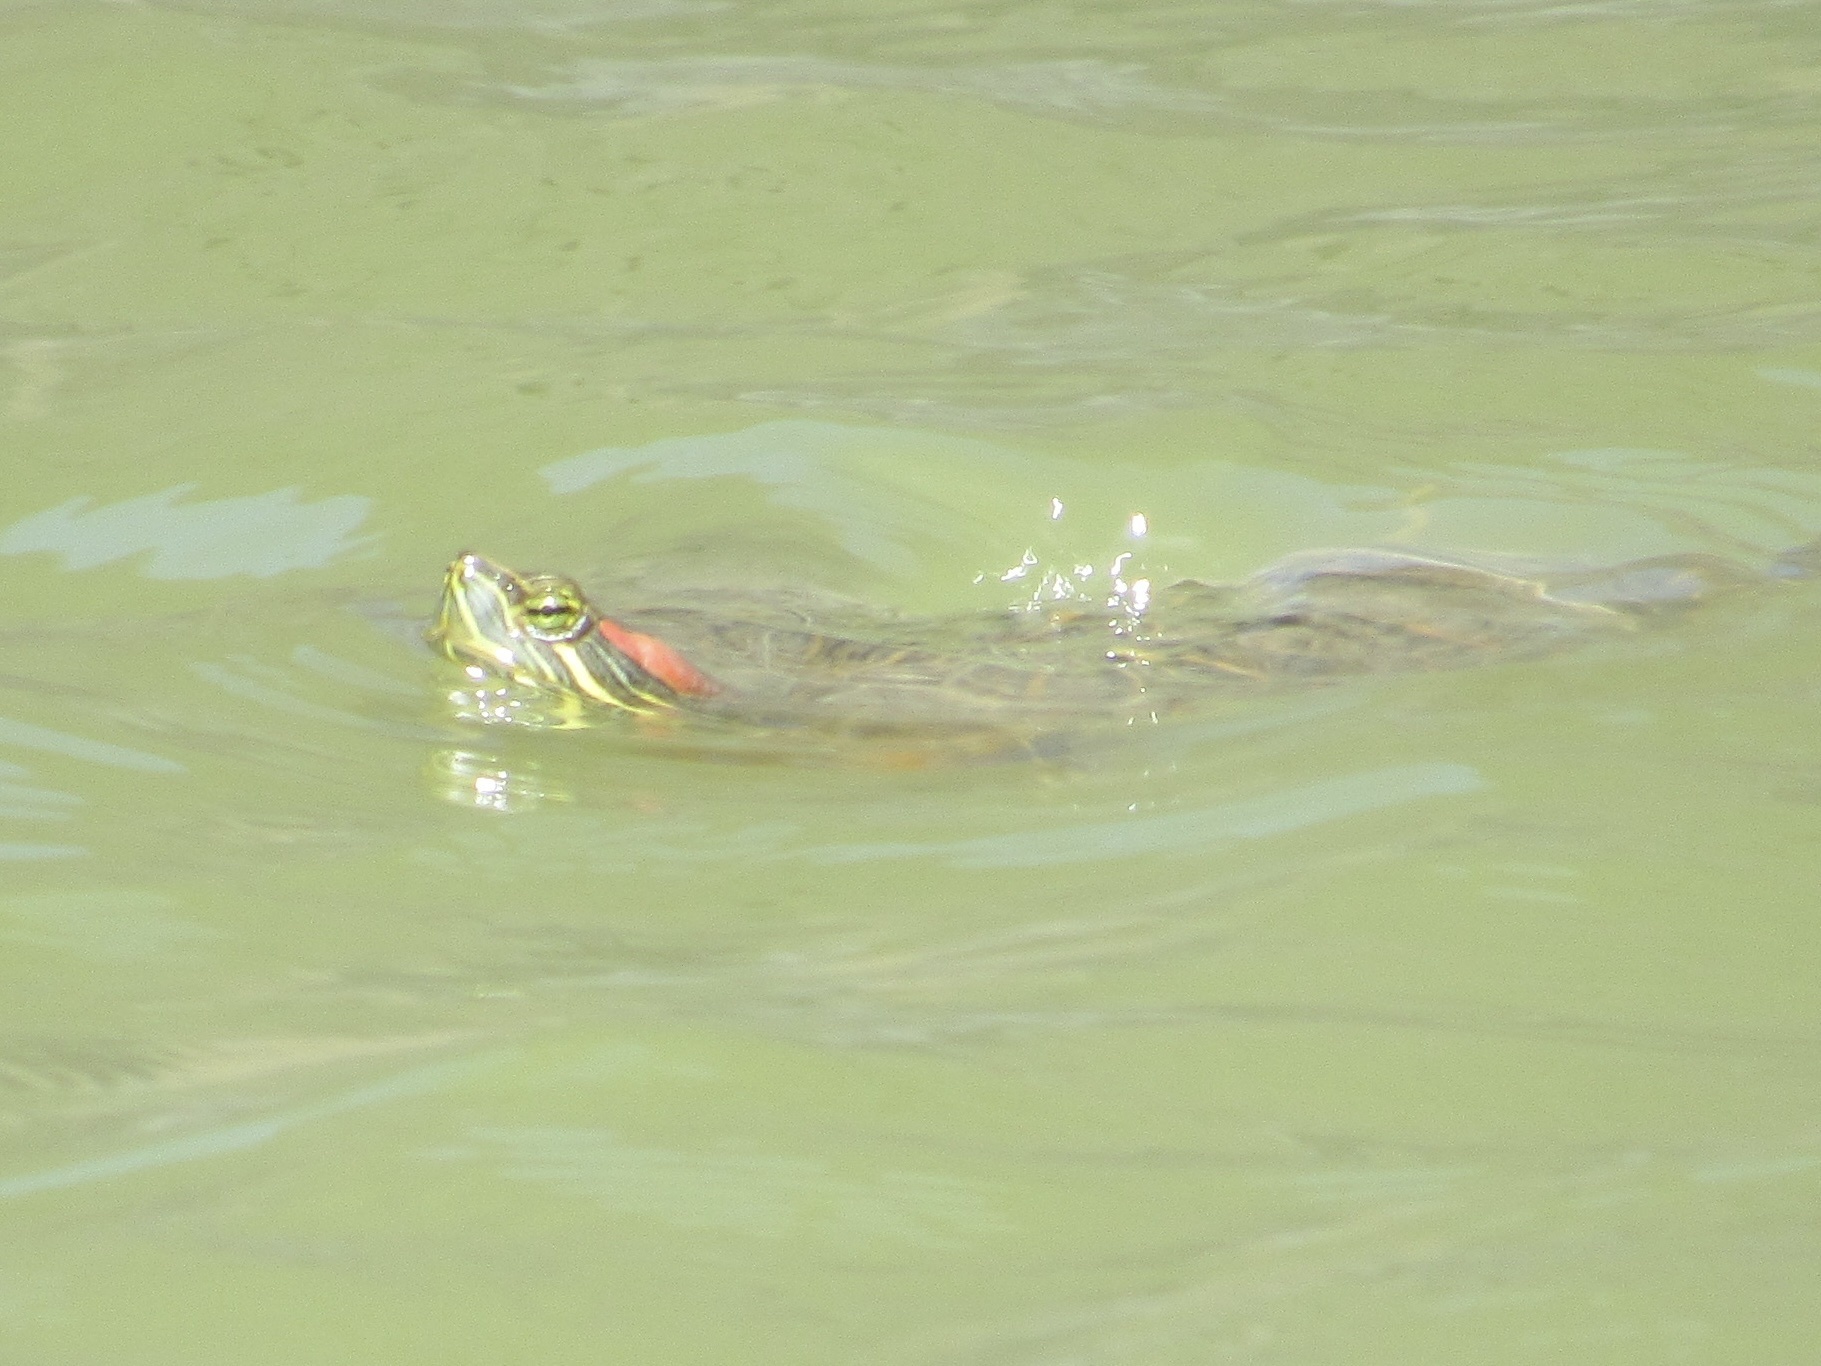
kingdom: Animalia
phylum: Chordata
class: Testudines
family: Emydidae
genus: Trachemys
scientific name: Trachemys scripta
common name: Slider
